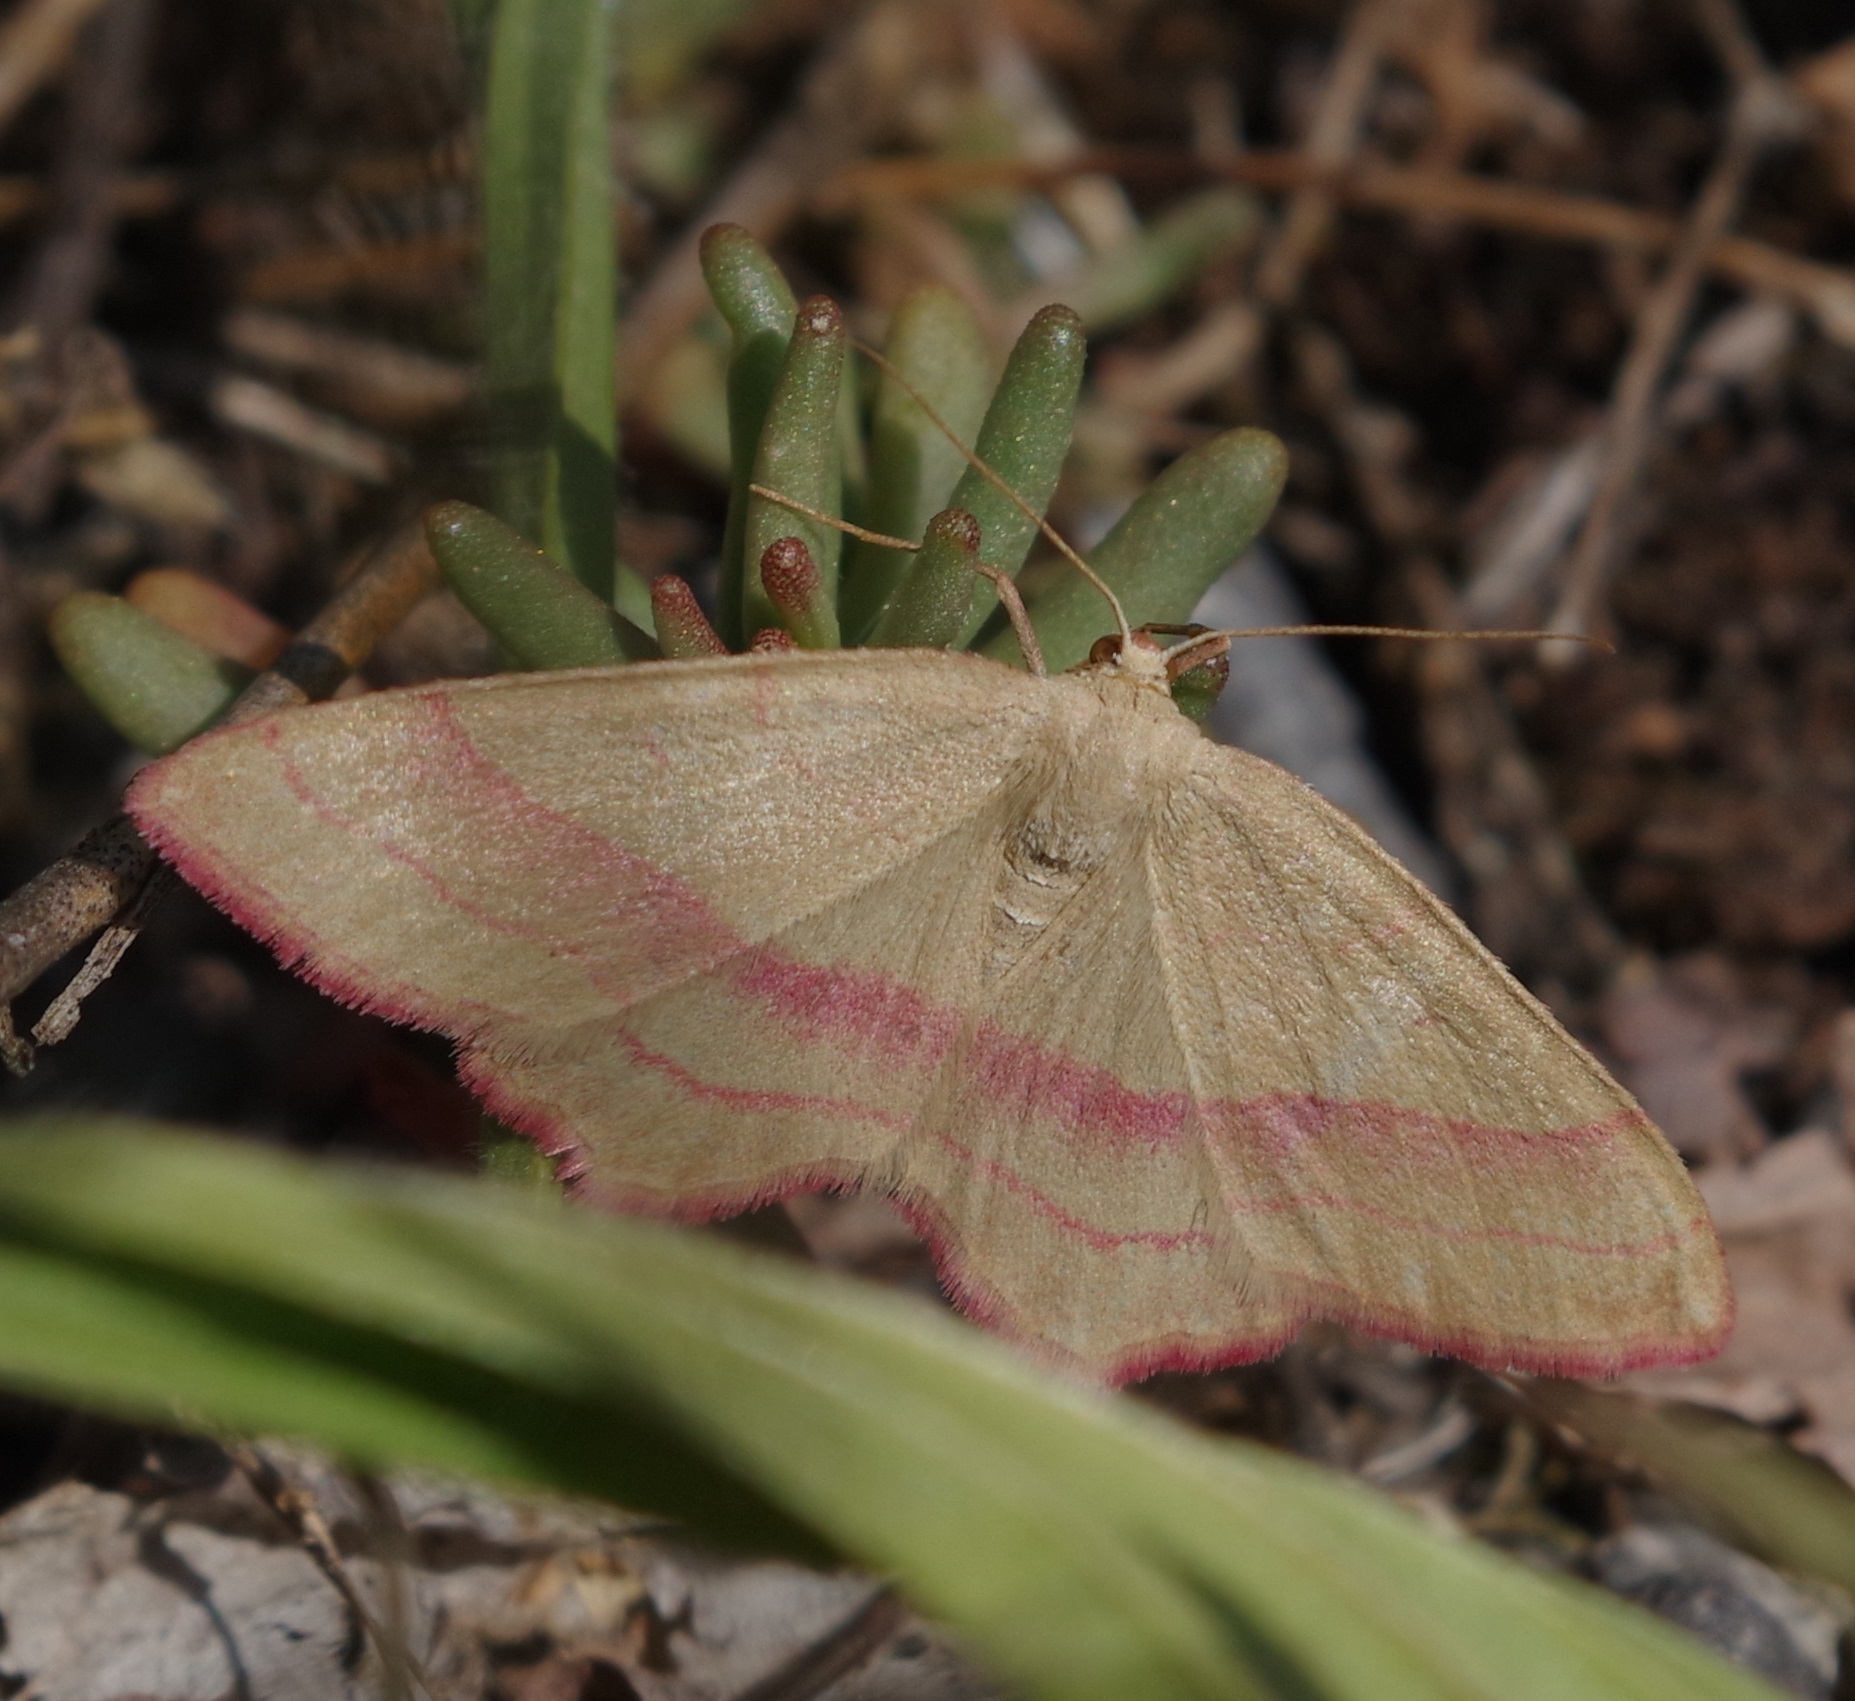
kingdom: Animalia
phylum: Arthropoda
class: Insecta
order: Lepidoptera
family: Geometridae
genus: Rhodostrophia
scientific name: Rhodostrophia vibicaria
